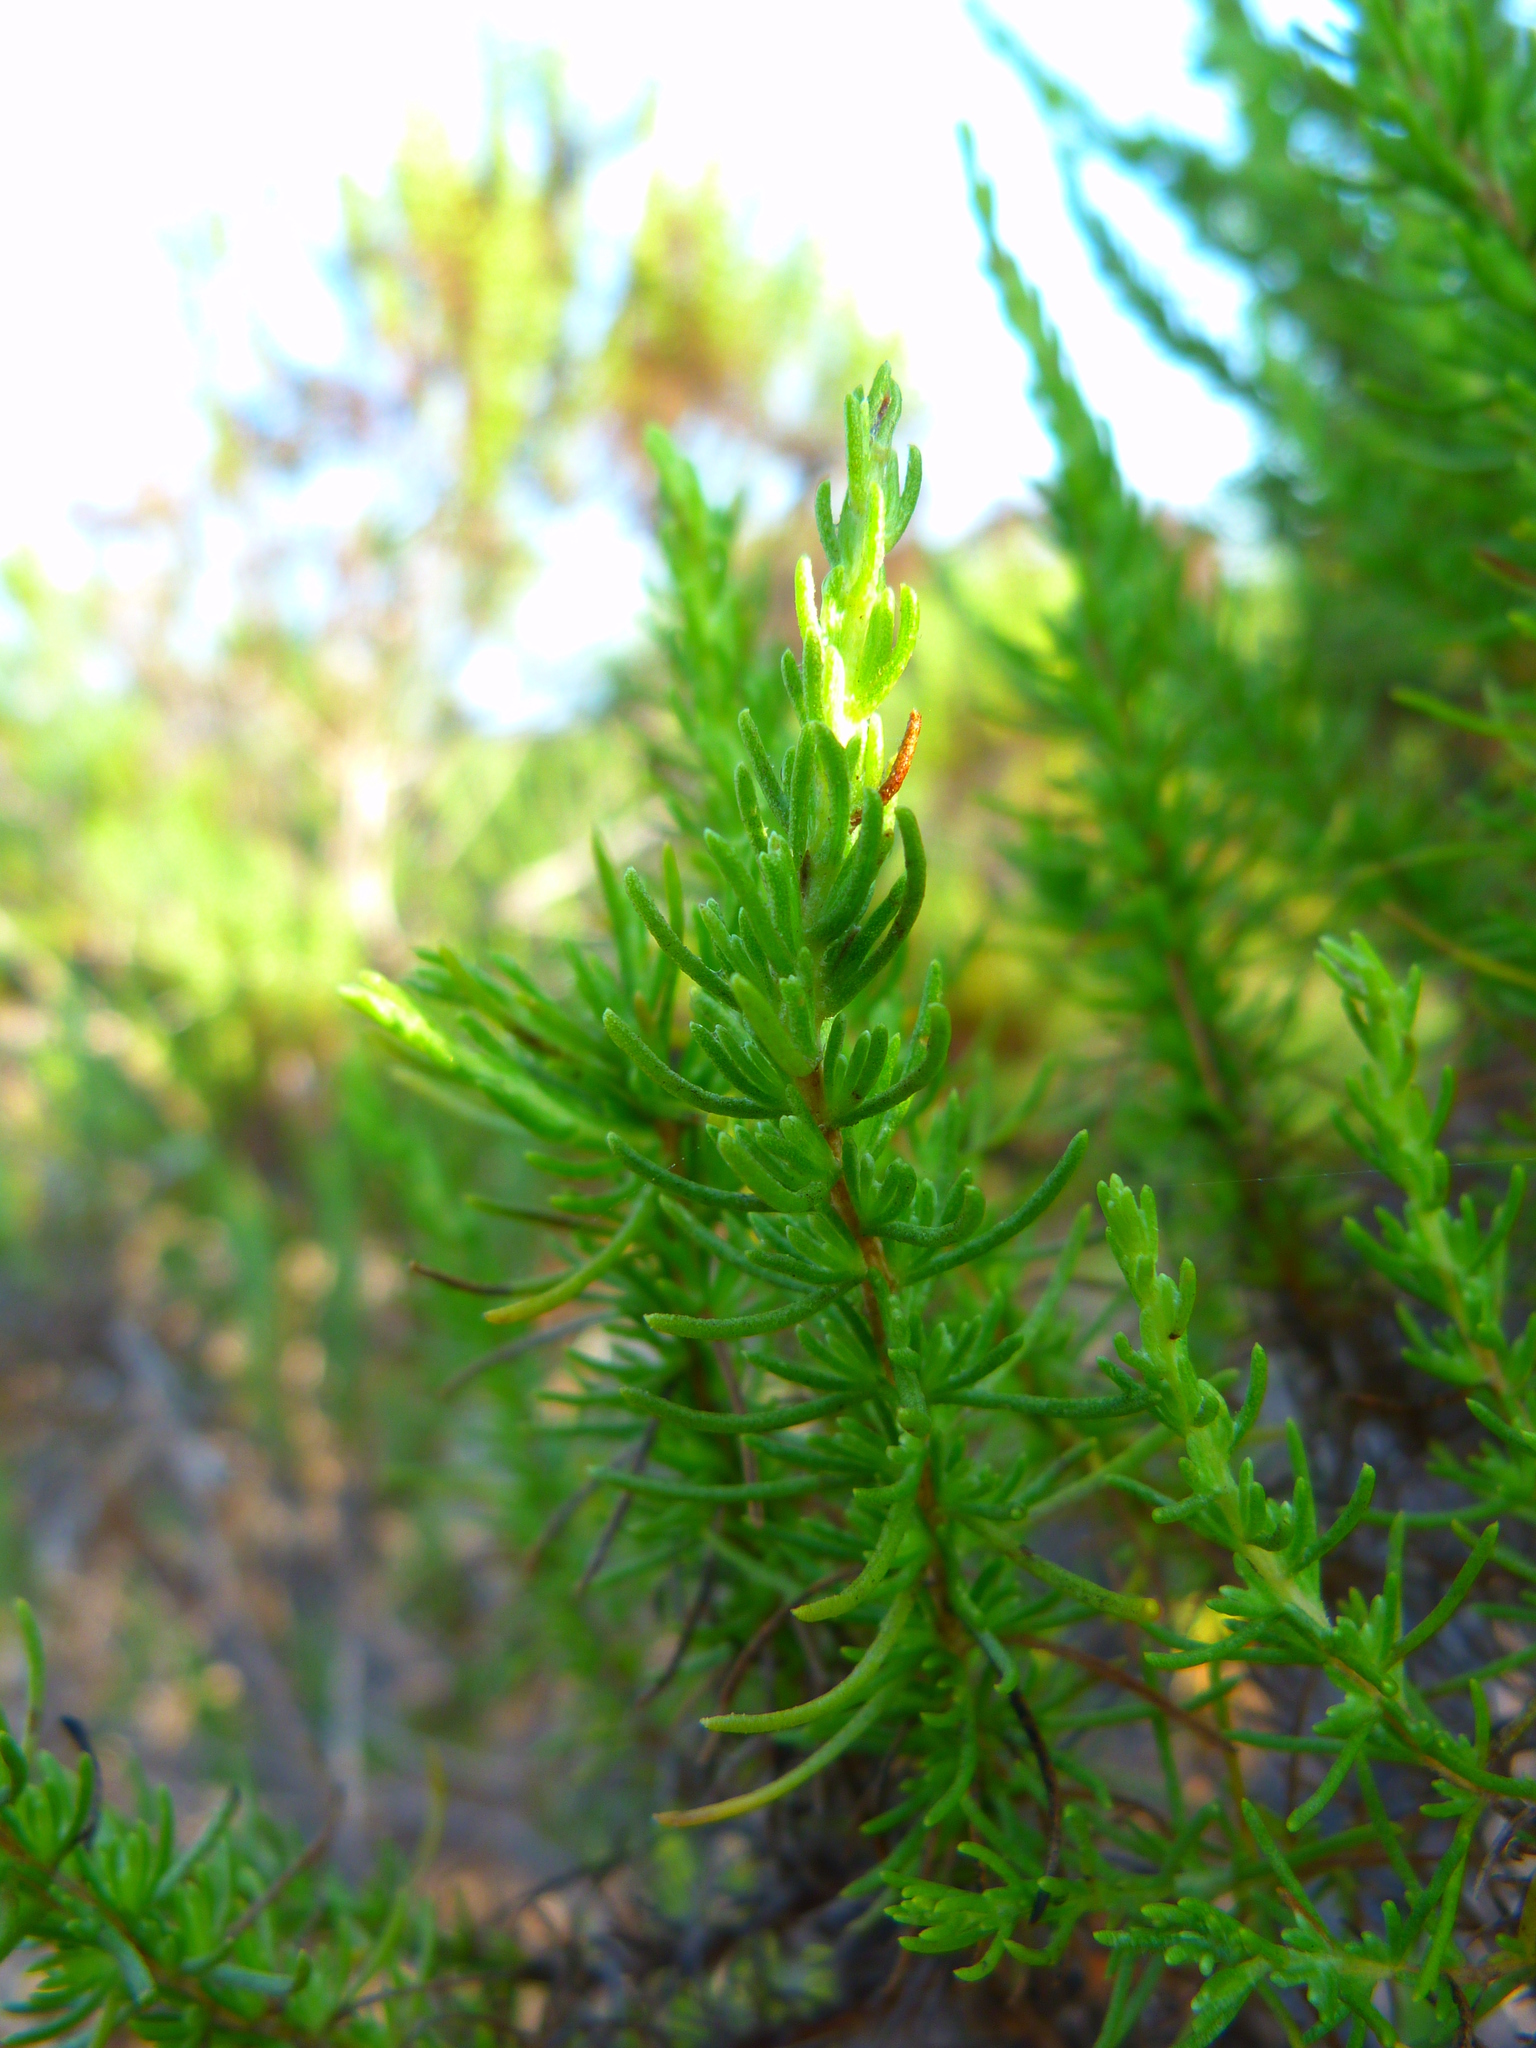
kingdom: Plantae
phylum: Tracheophyta
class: Magnoliopsida
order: Asterales
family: Asteraceae
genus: Ericameria
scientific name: Ericameria ericoides
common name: California goldenbush
